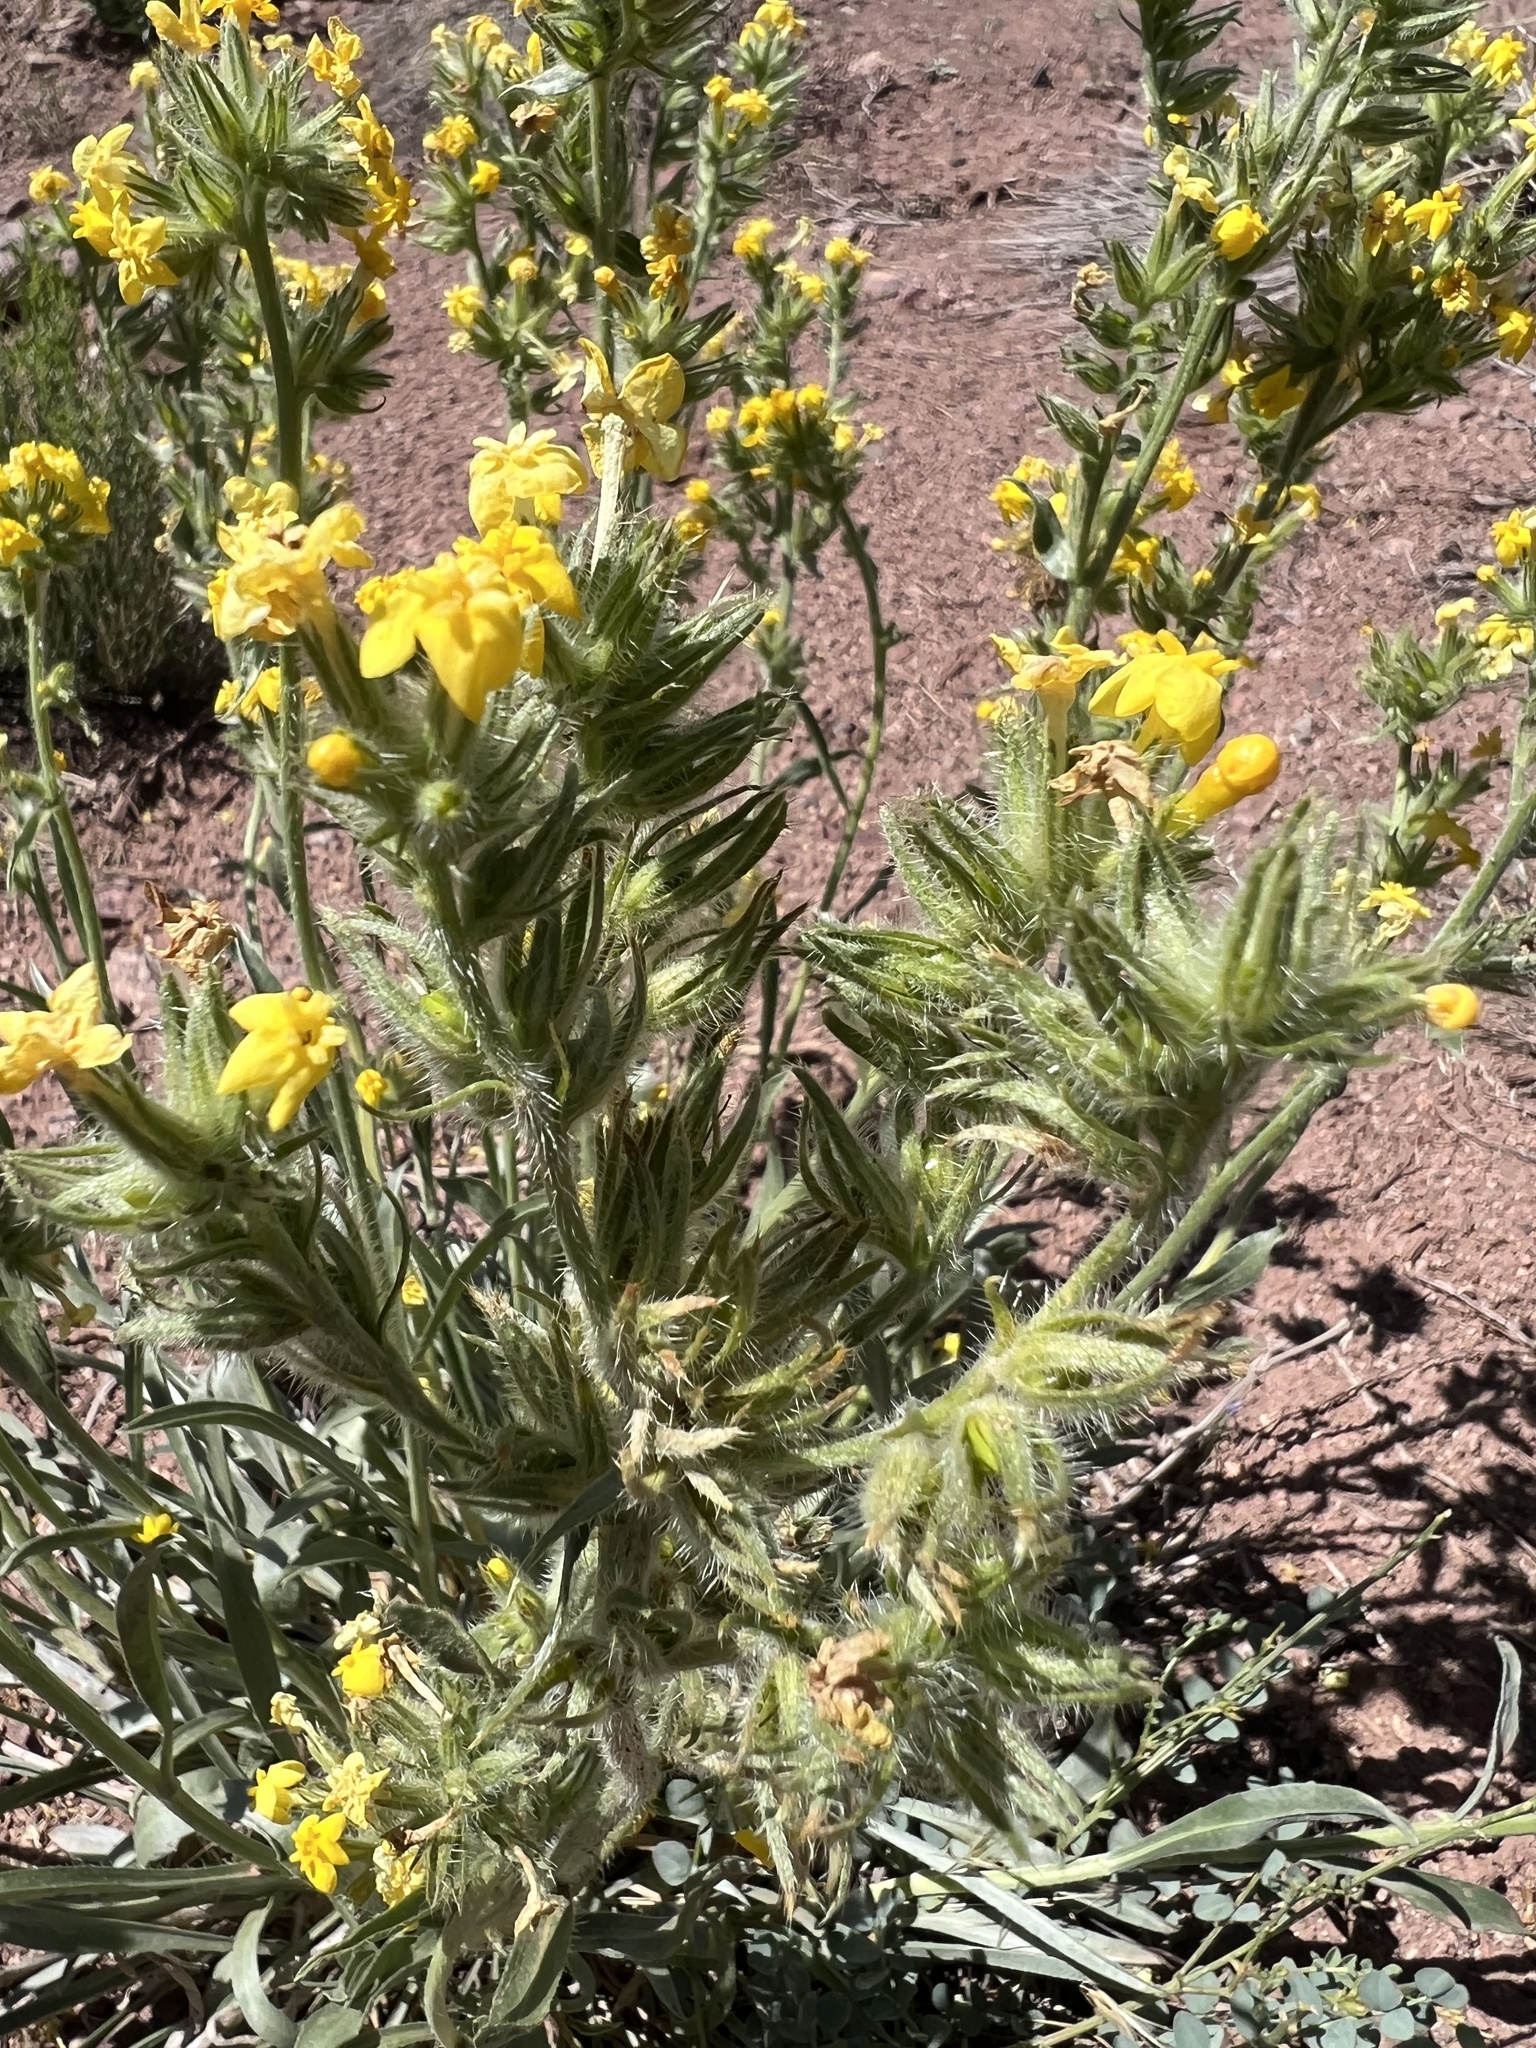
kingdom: Plantae
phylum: Tracheophyta
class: Magnoliopsida
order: Boraginales
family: Boraginaceae
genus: Oreocarya
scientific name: Oreocarya confertiflora
